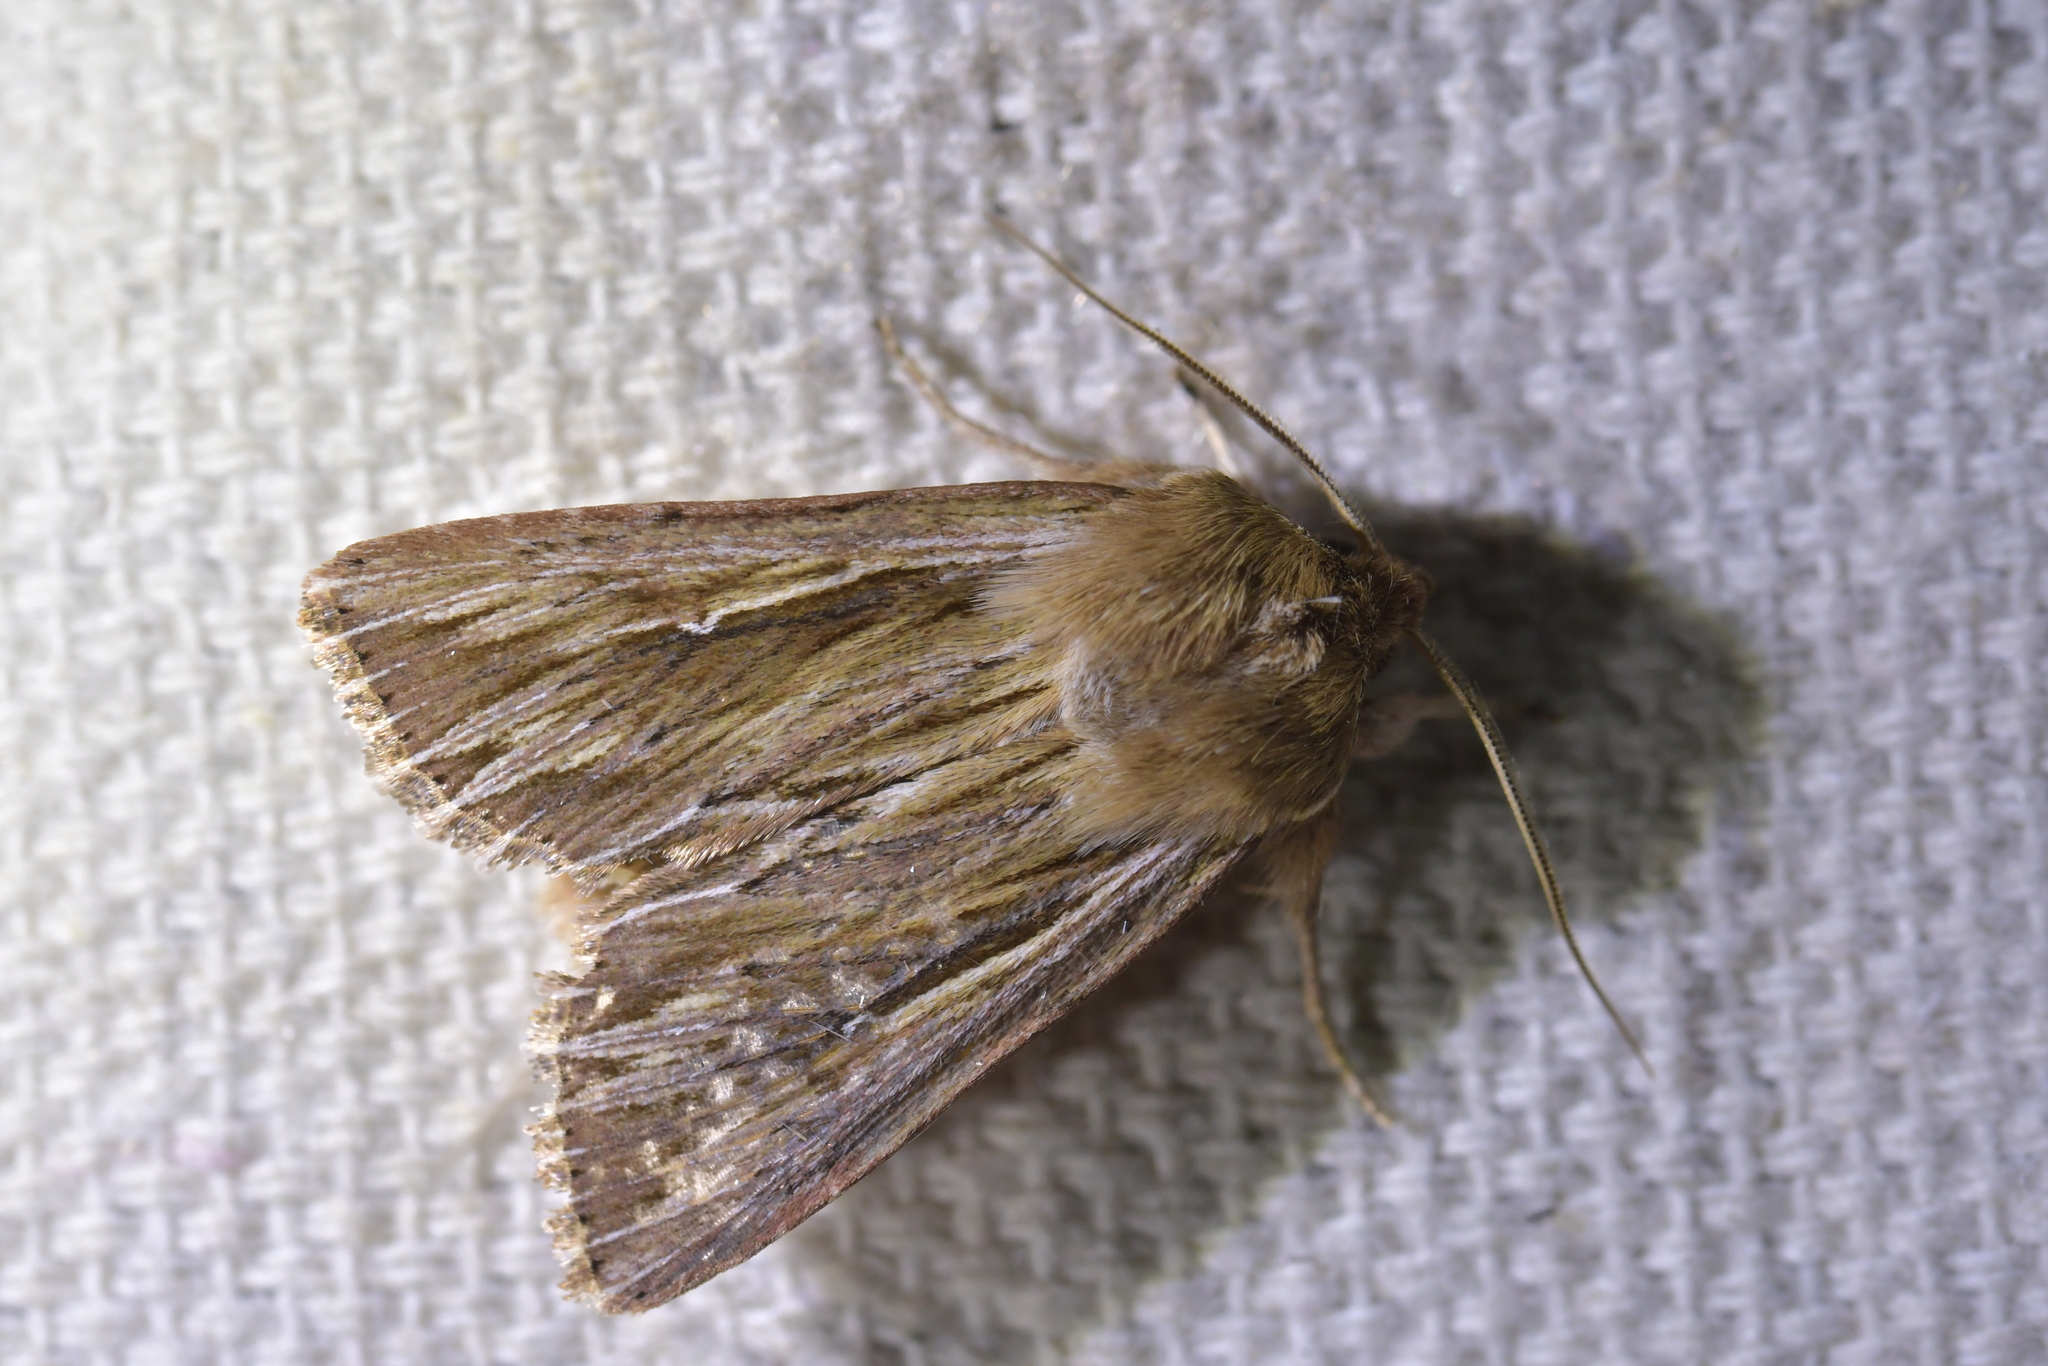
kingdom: Animalia
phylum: Arthropoda
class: Insecta
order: Lepidoptera
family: Noctuidae
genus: Persectania
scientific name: Persectania aversa
